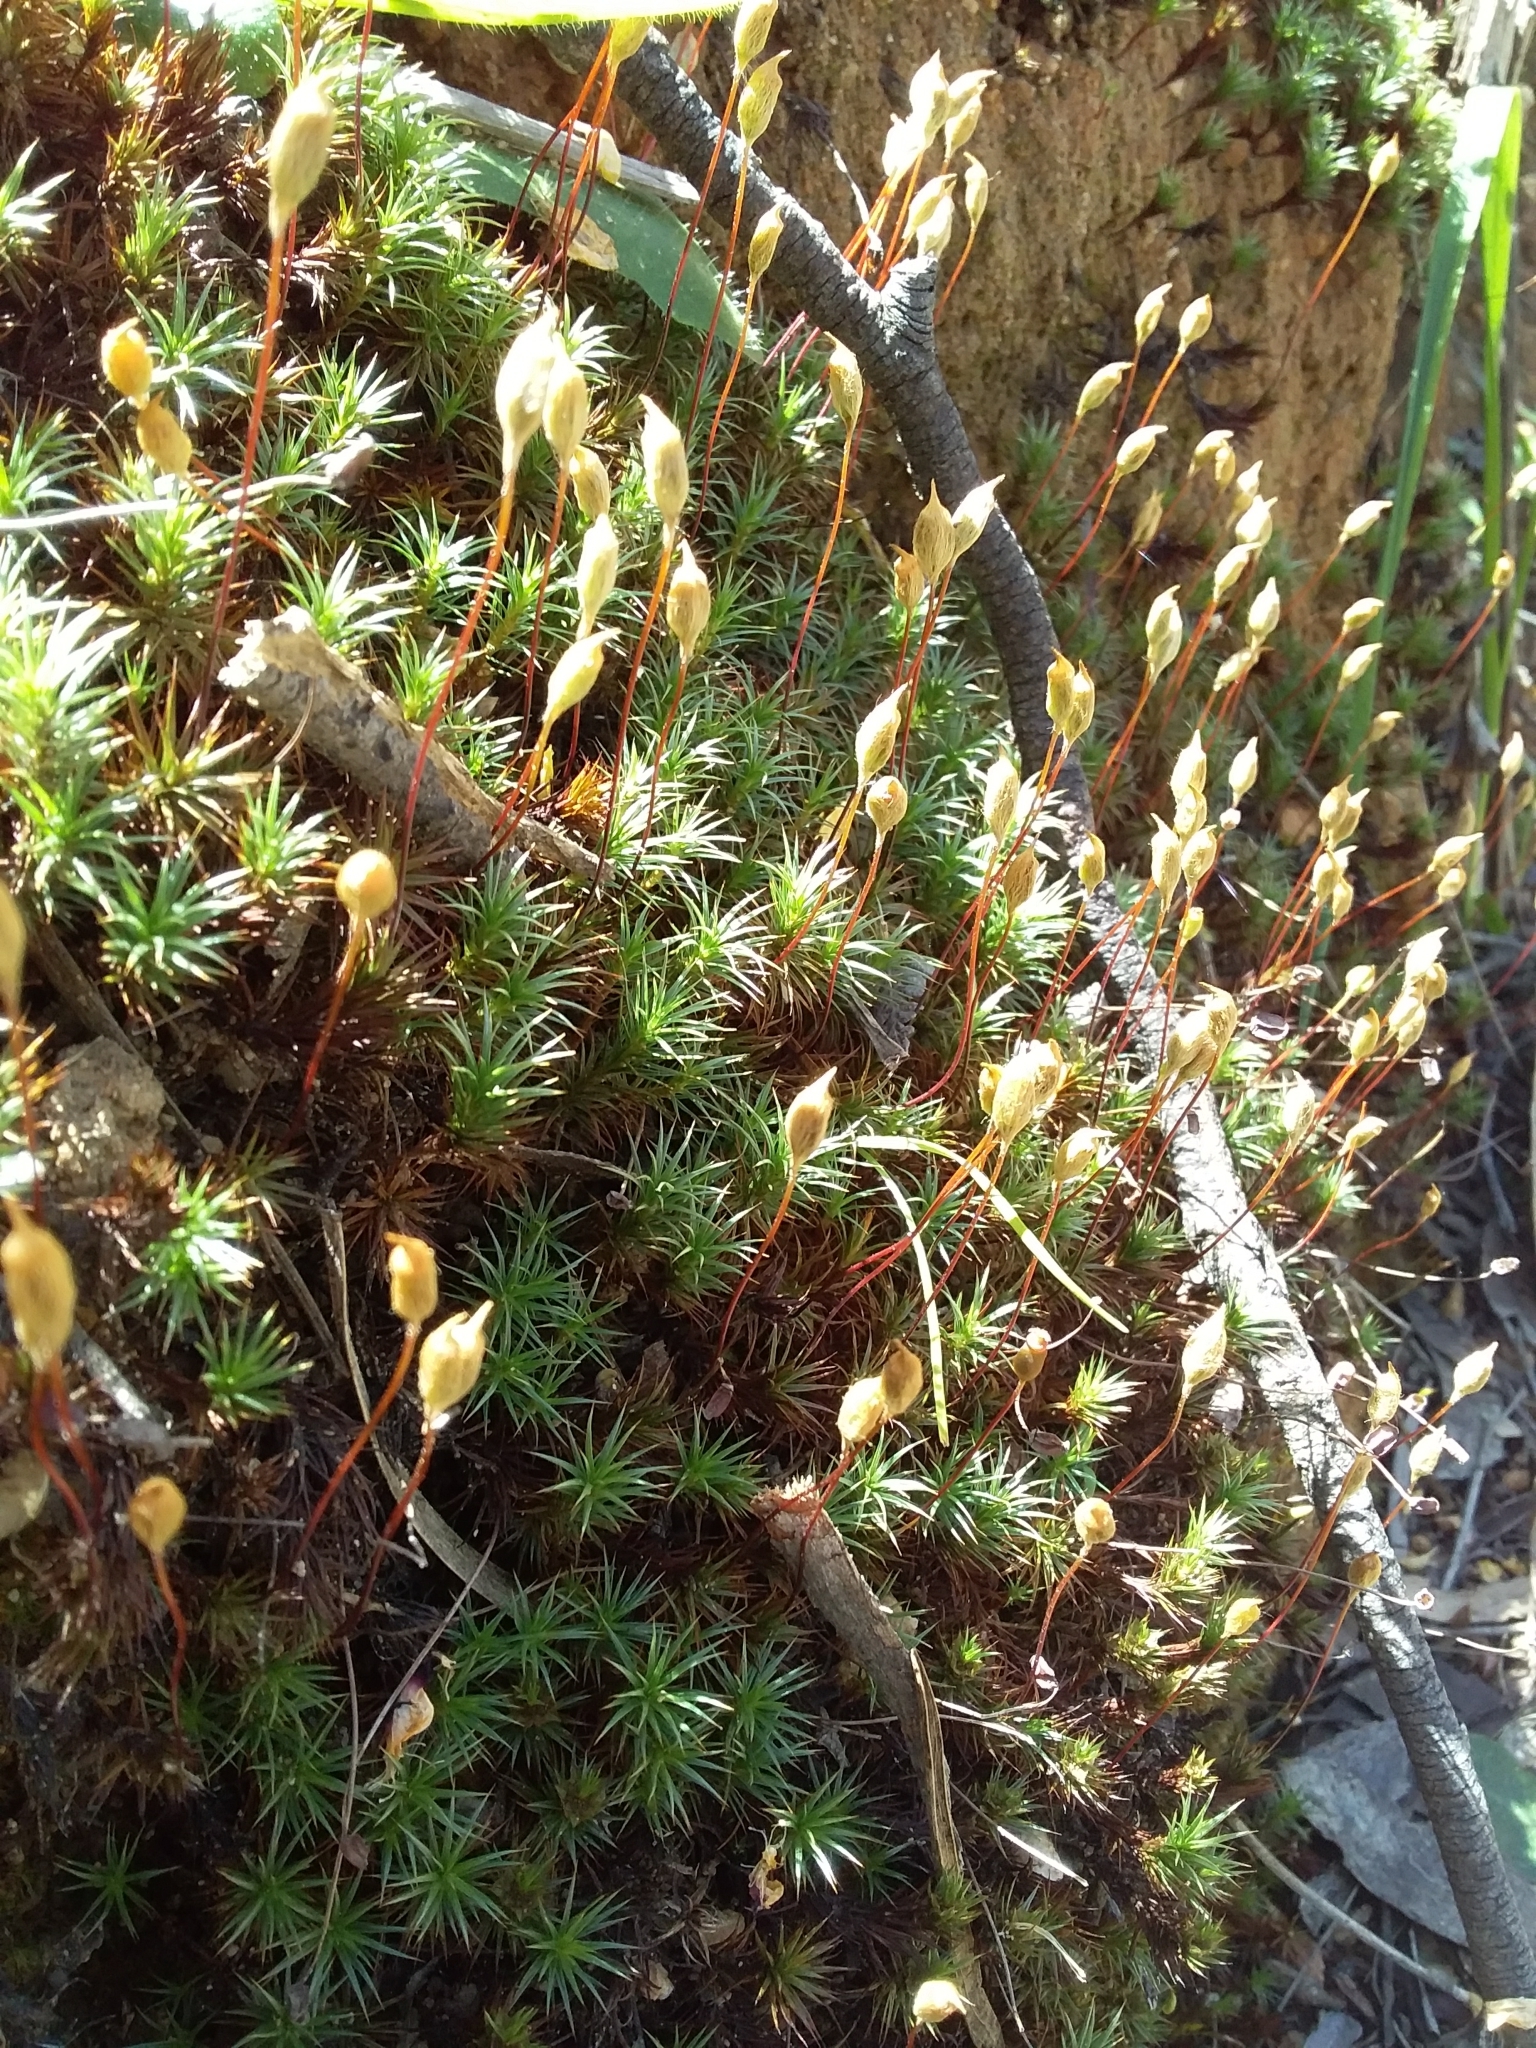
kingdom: Plantae
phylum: Bryophyta
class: Polytrichopsida
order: Polytrichales
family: Polytrichaceae
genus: Polytrichum
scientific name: Polytrichum juniperinum
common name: Juniper haircap moss
